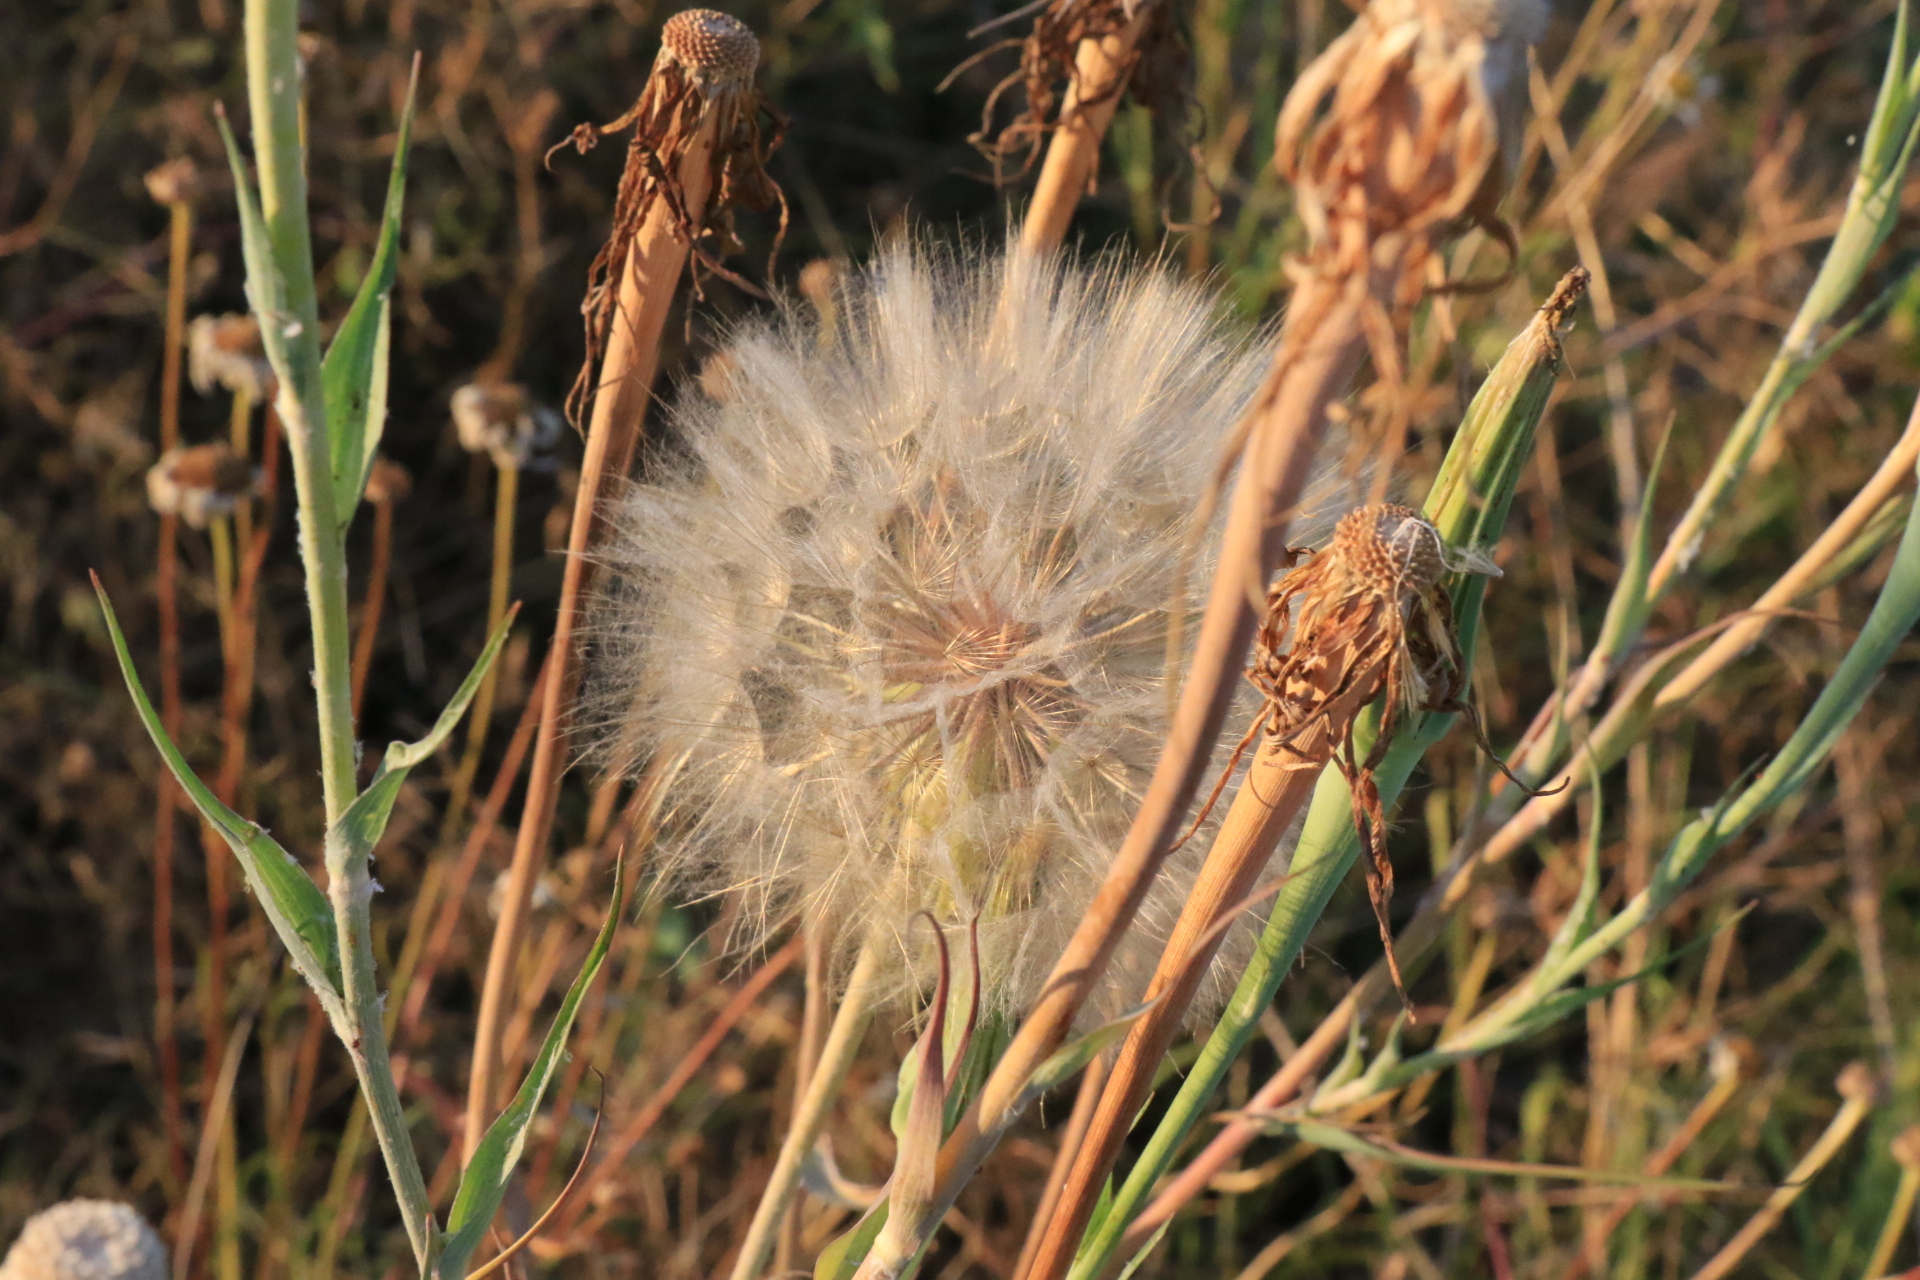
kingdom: Plantae
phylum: Tracheophyta
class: Magnoliopsida
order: Asterales
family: Asteraceae
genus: Tragopogon
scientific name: Tragopogon
